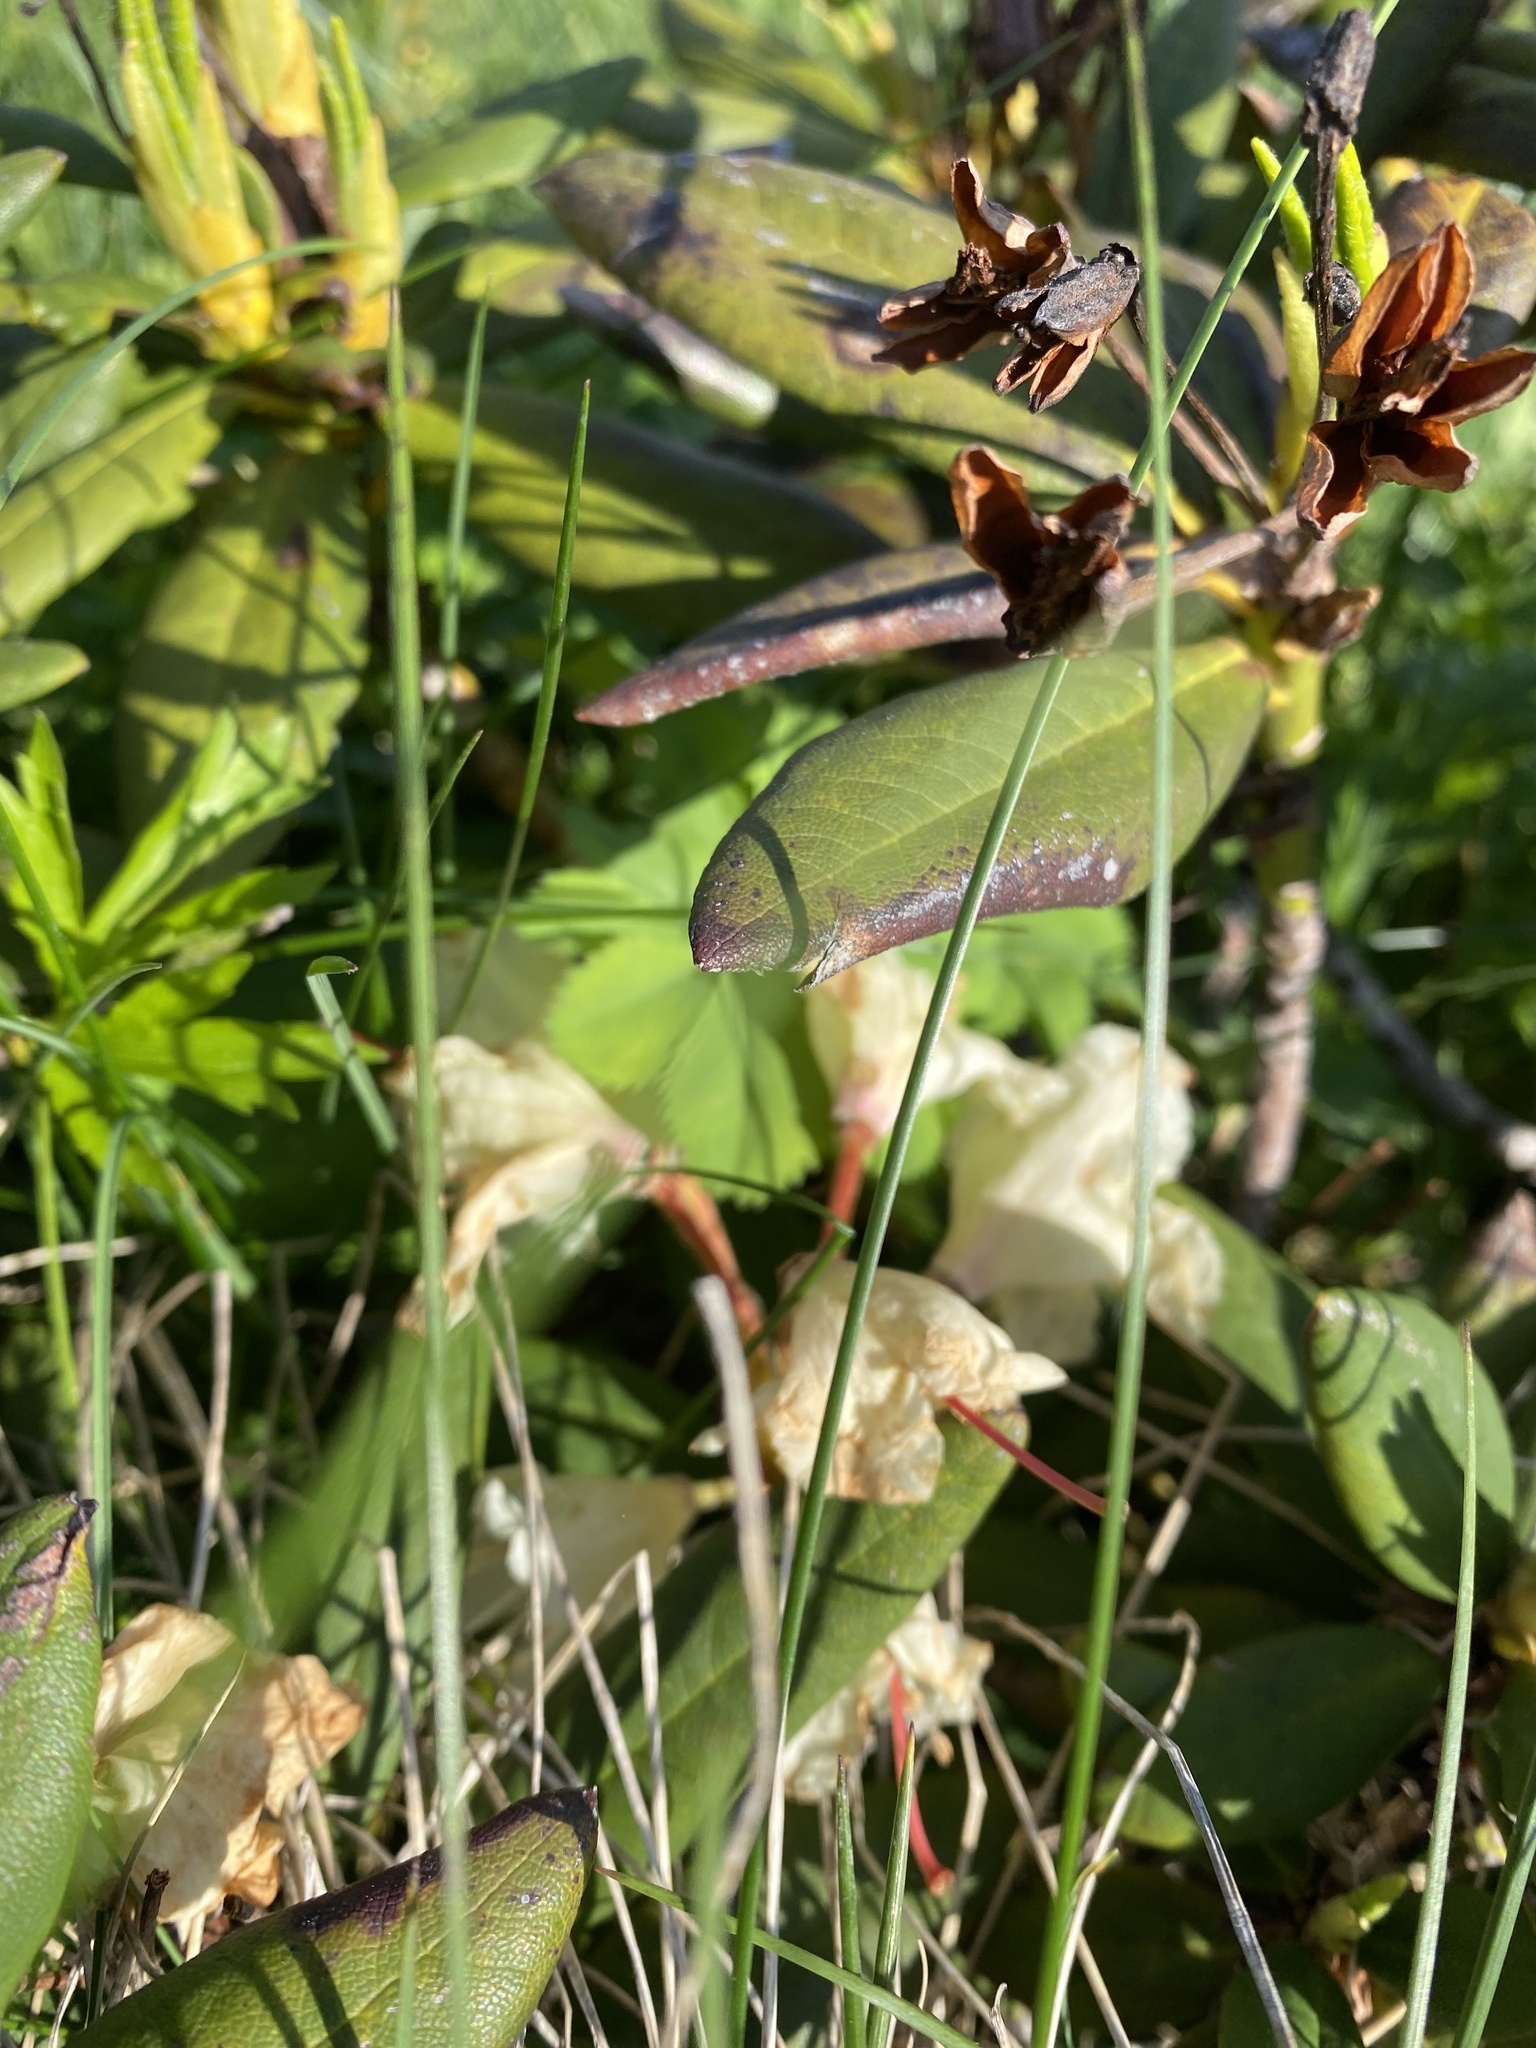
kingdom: Plantae
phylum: Tracheophyta
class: Magnoliopsida
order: Ericales
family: Ericaceae
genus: Rhododendron
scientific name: Rhododendron caucasicum
